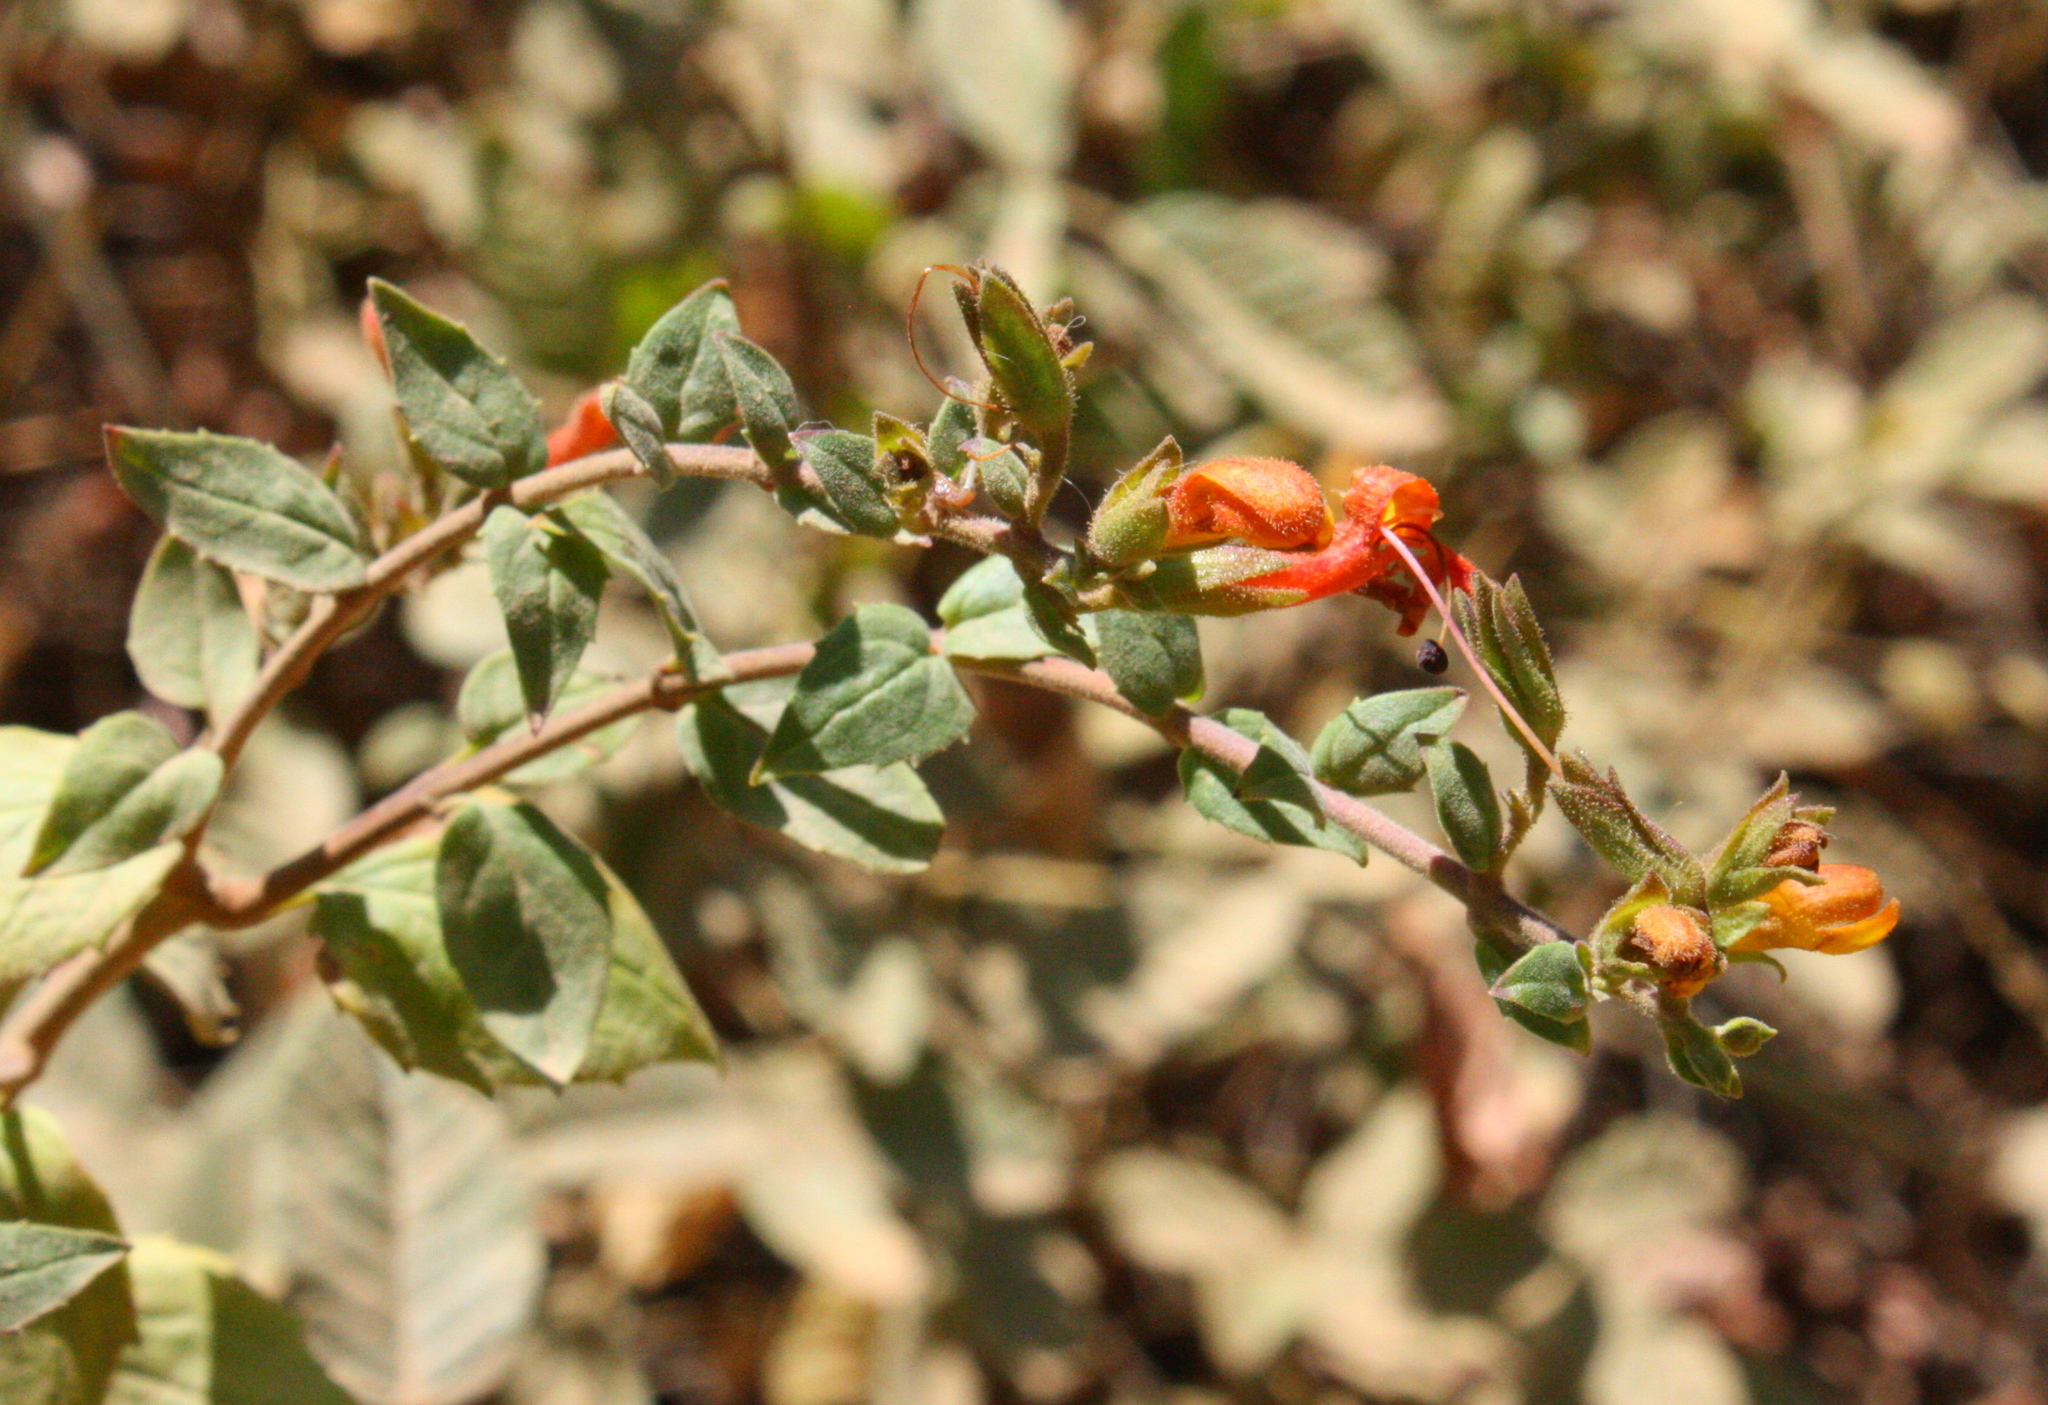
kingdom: Plantae
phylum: Tracheophyta
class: Magnoliopsida
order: Lamiales
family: Plantaginaceae
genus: Keckiella
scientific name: Keckiella cordifolia
